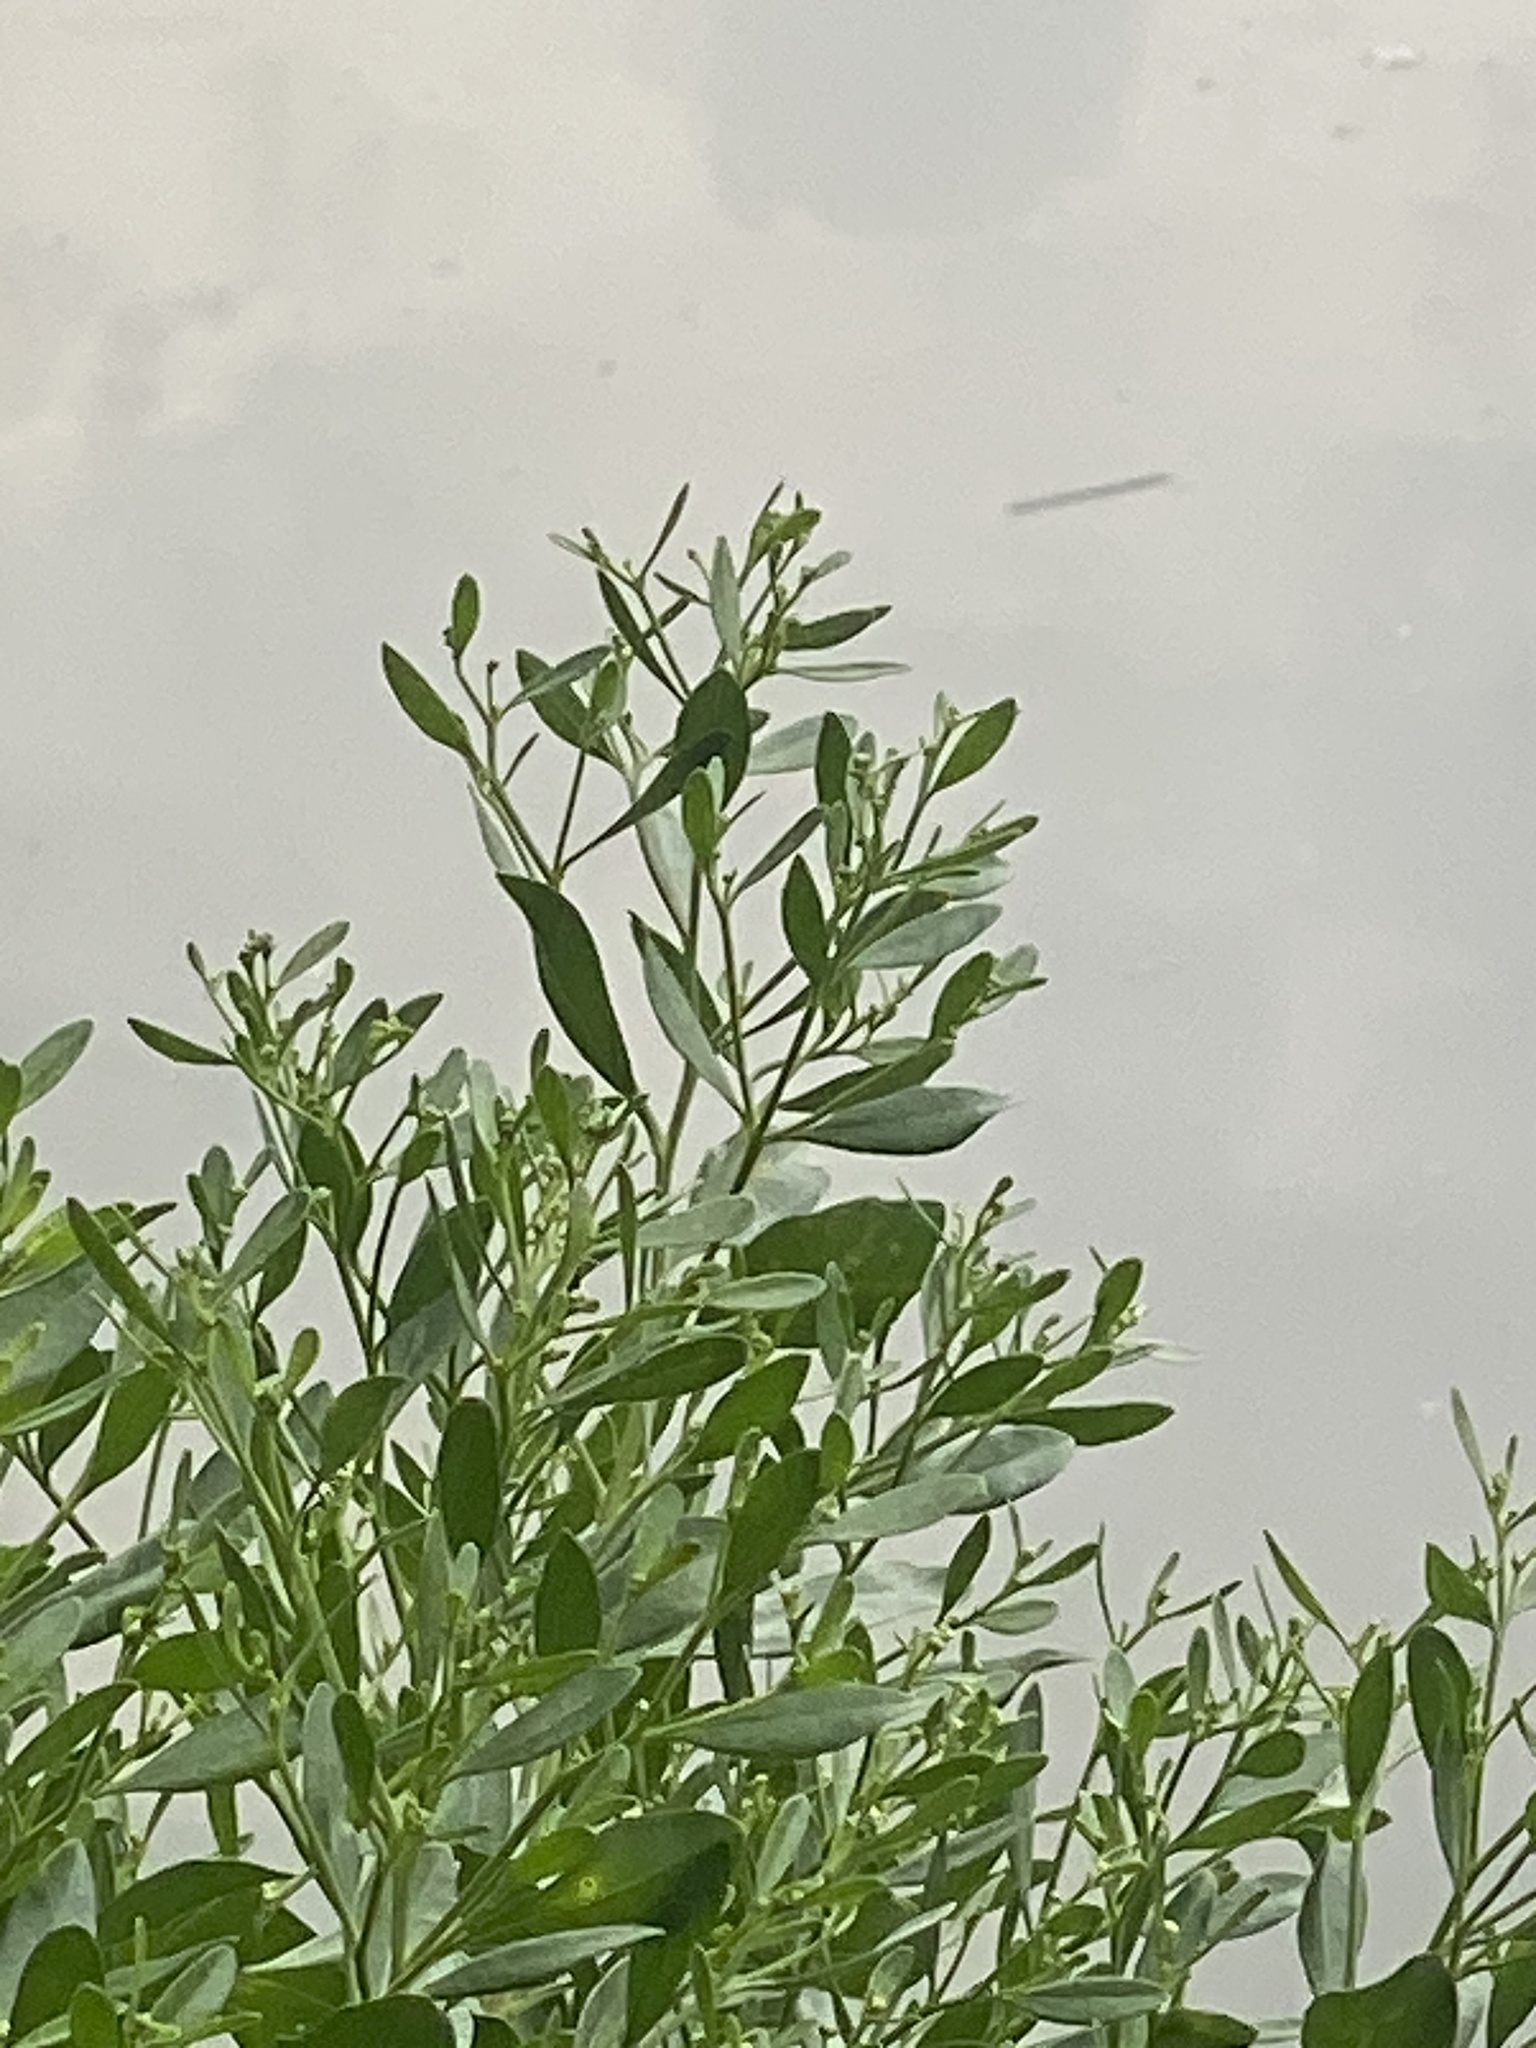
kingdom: Plantae
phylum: Tracheophyta
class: Magnoliopsida
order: Asterales
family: Asteraceae
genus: Baccharis
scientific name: Baccharis halimifolia
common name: Eastern baccharis
